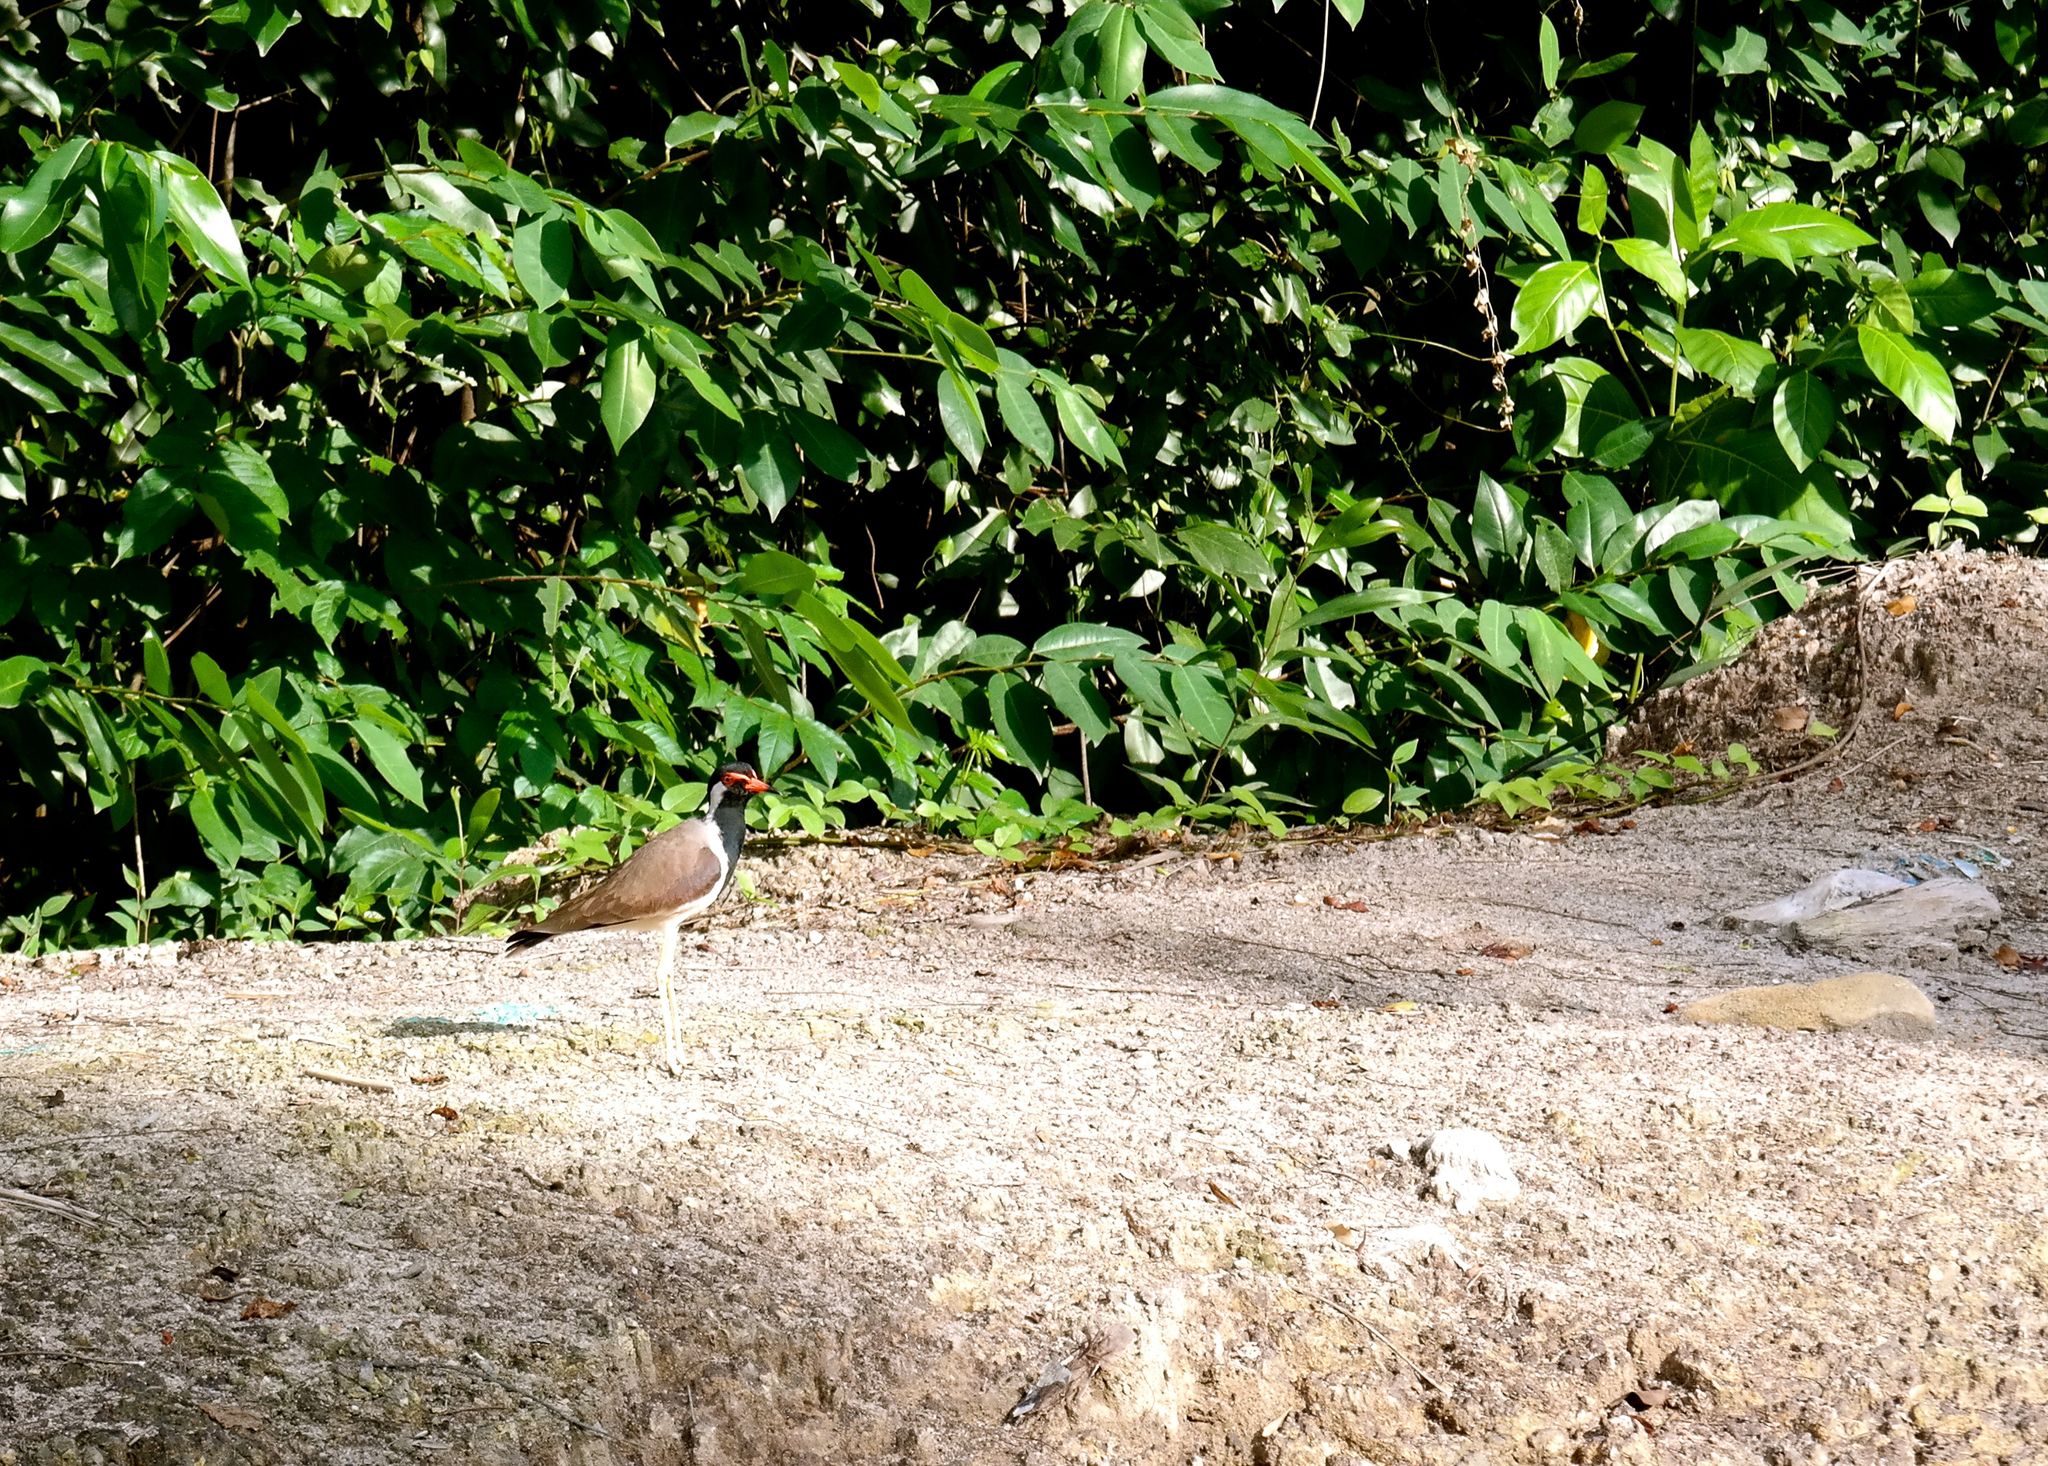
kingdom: Animalia
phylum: Chordata
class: Aves
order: Charadriiformes
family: Charadriidae
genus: Vanellus
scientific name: Vanellus indicus
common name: Red-wattled lapwing
